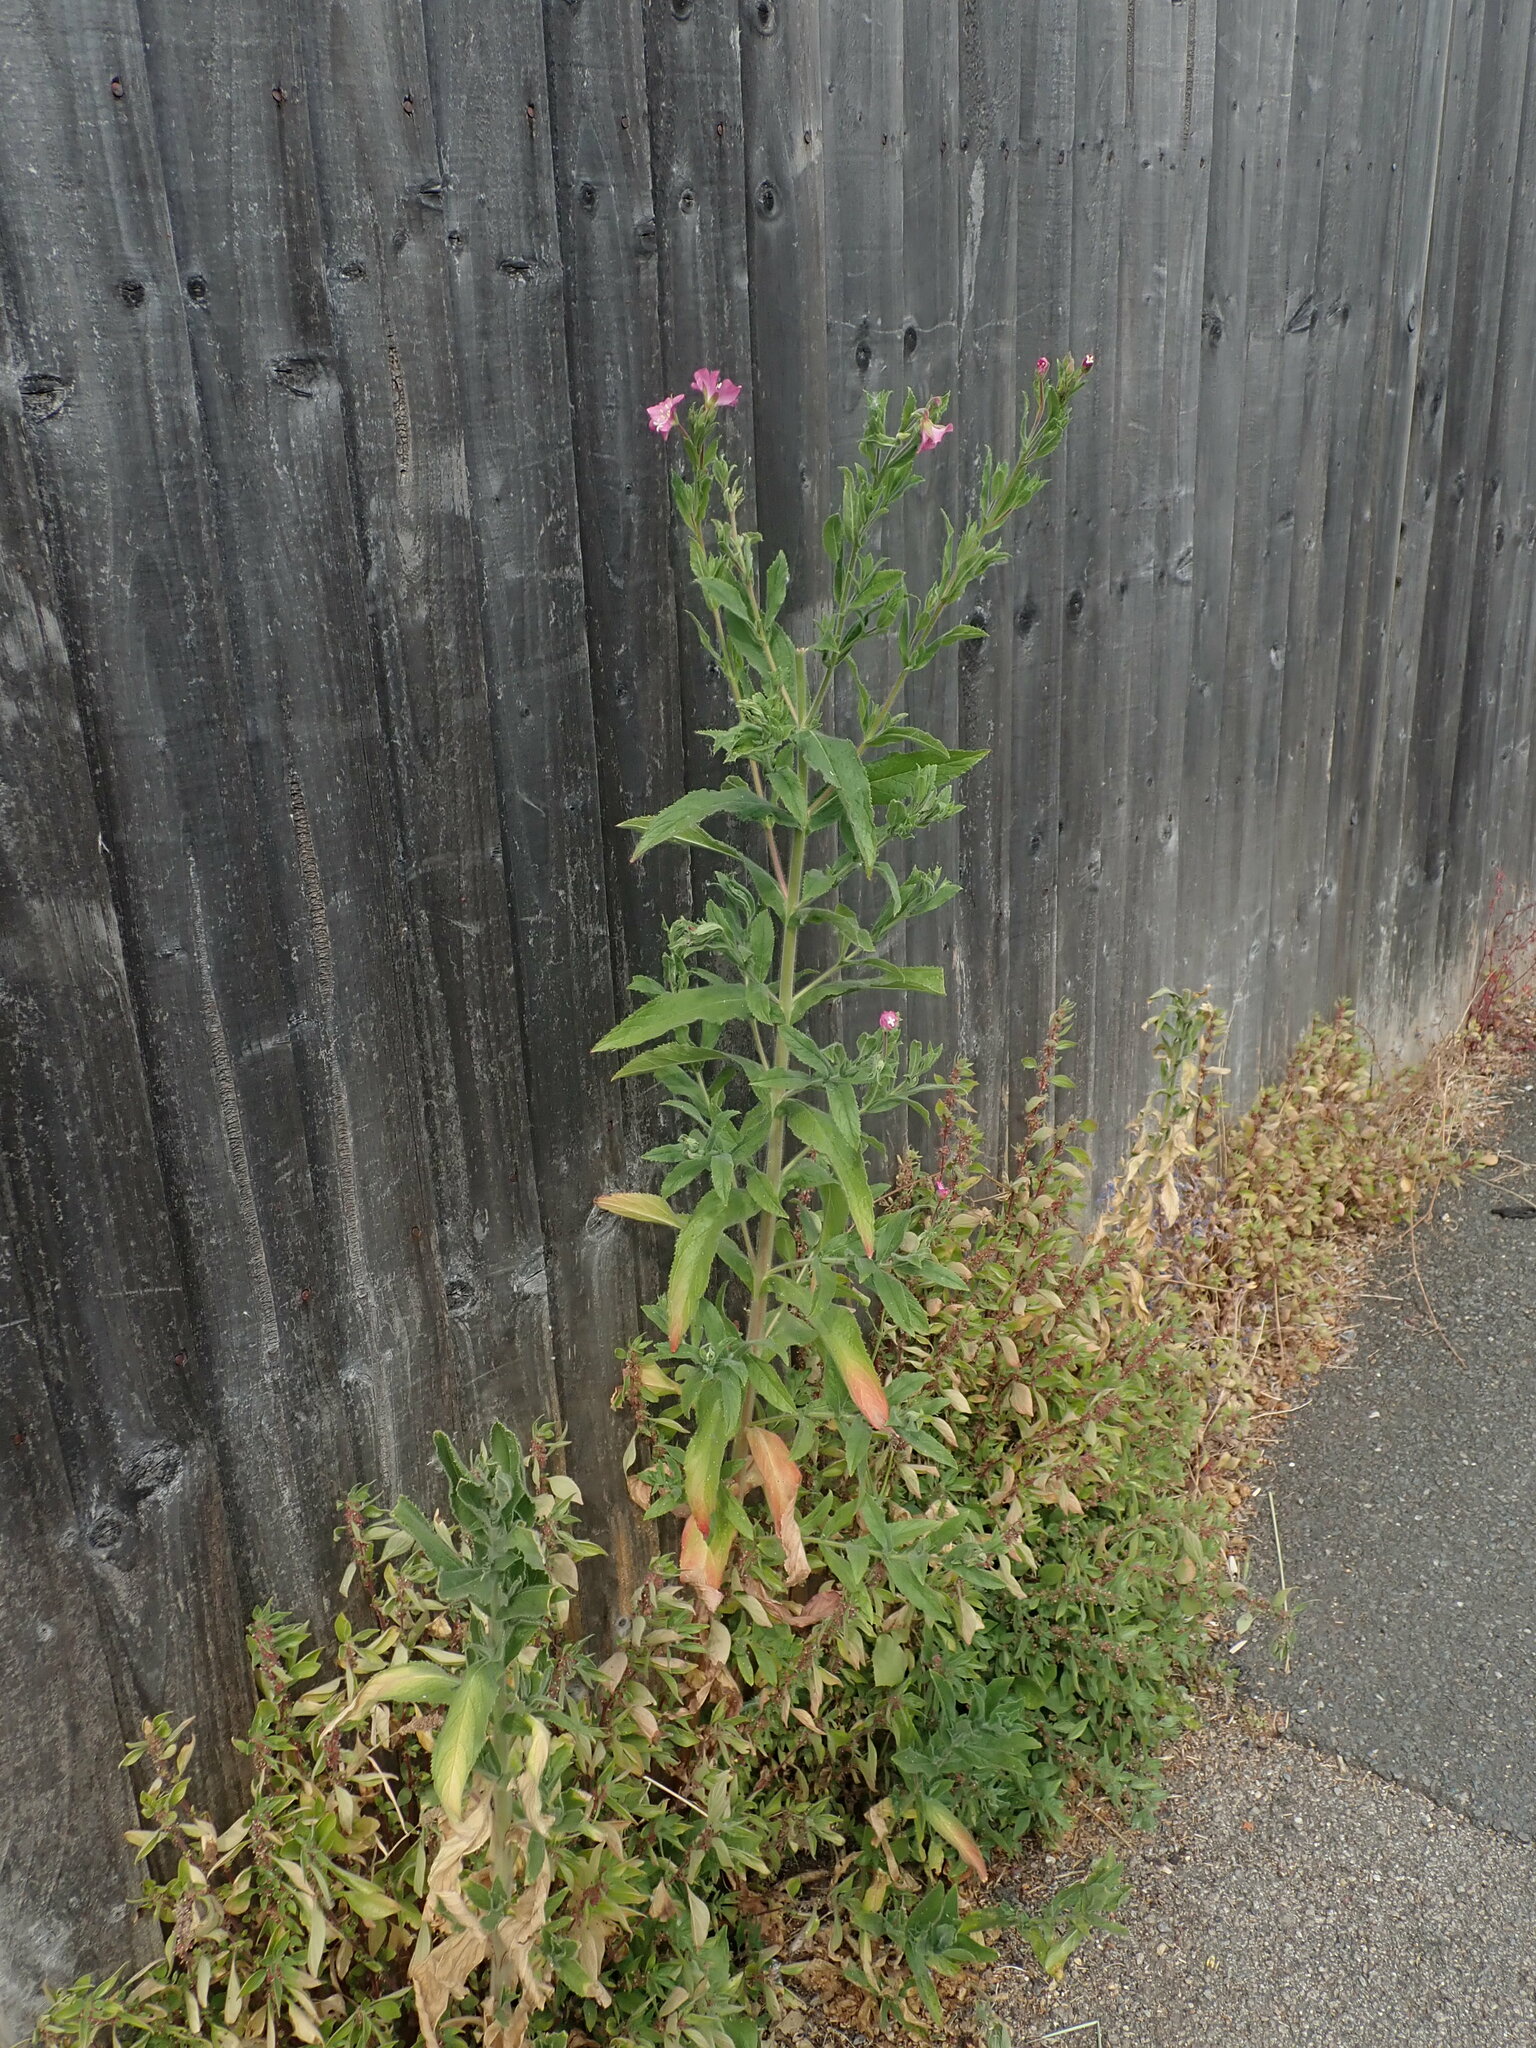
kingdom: Plantae
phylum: Tracheophyta
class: Magnoliopsida
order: Myrtales
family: Onagraceae
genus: Epilobium
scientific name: Epilobium hirsutum
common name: Great willowherb
